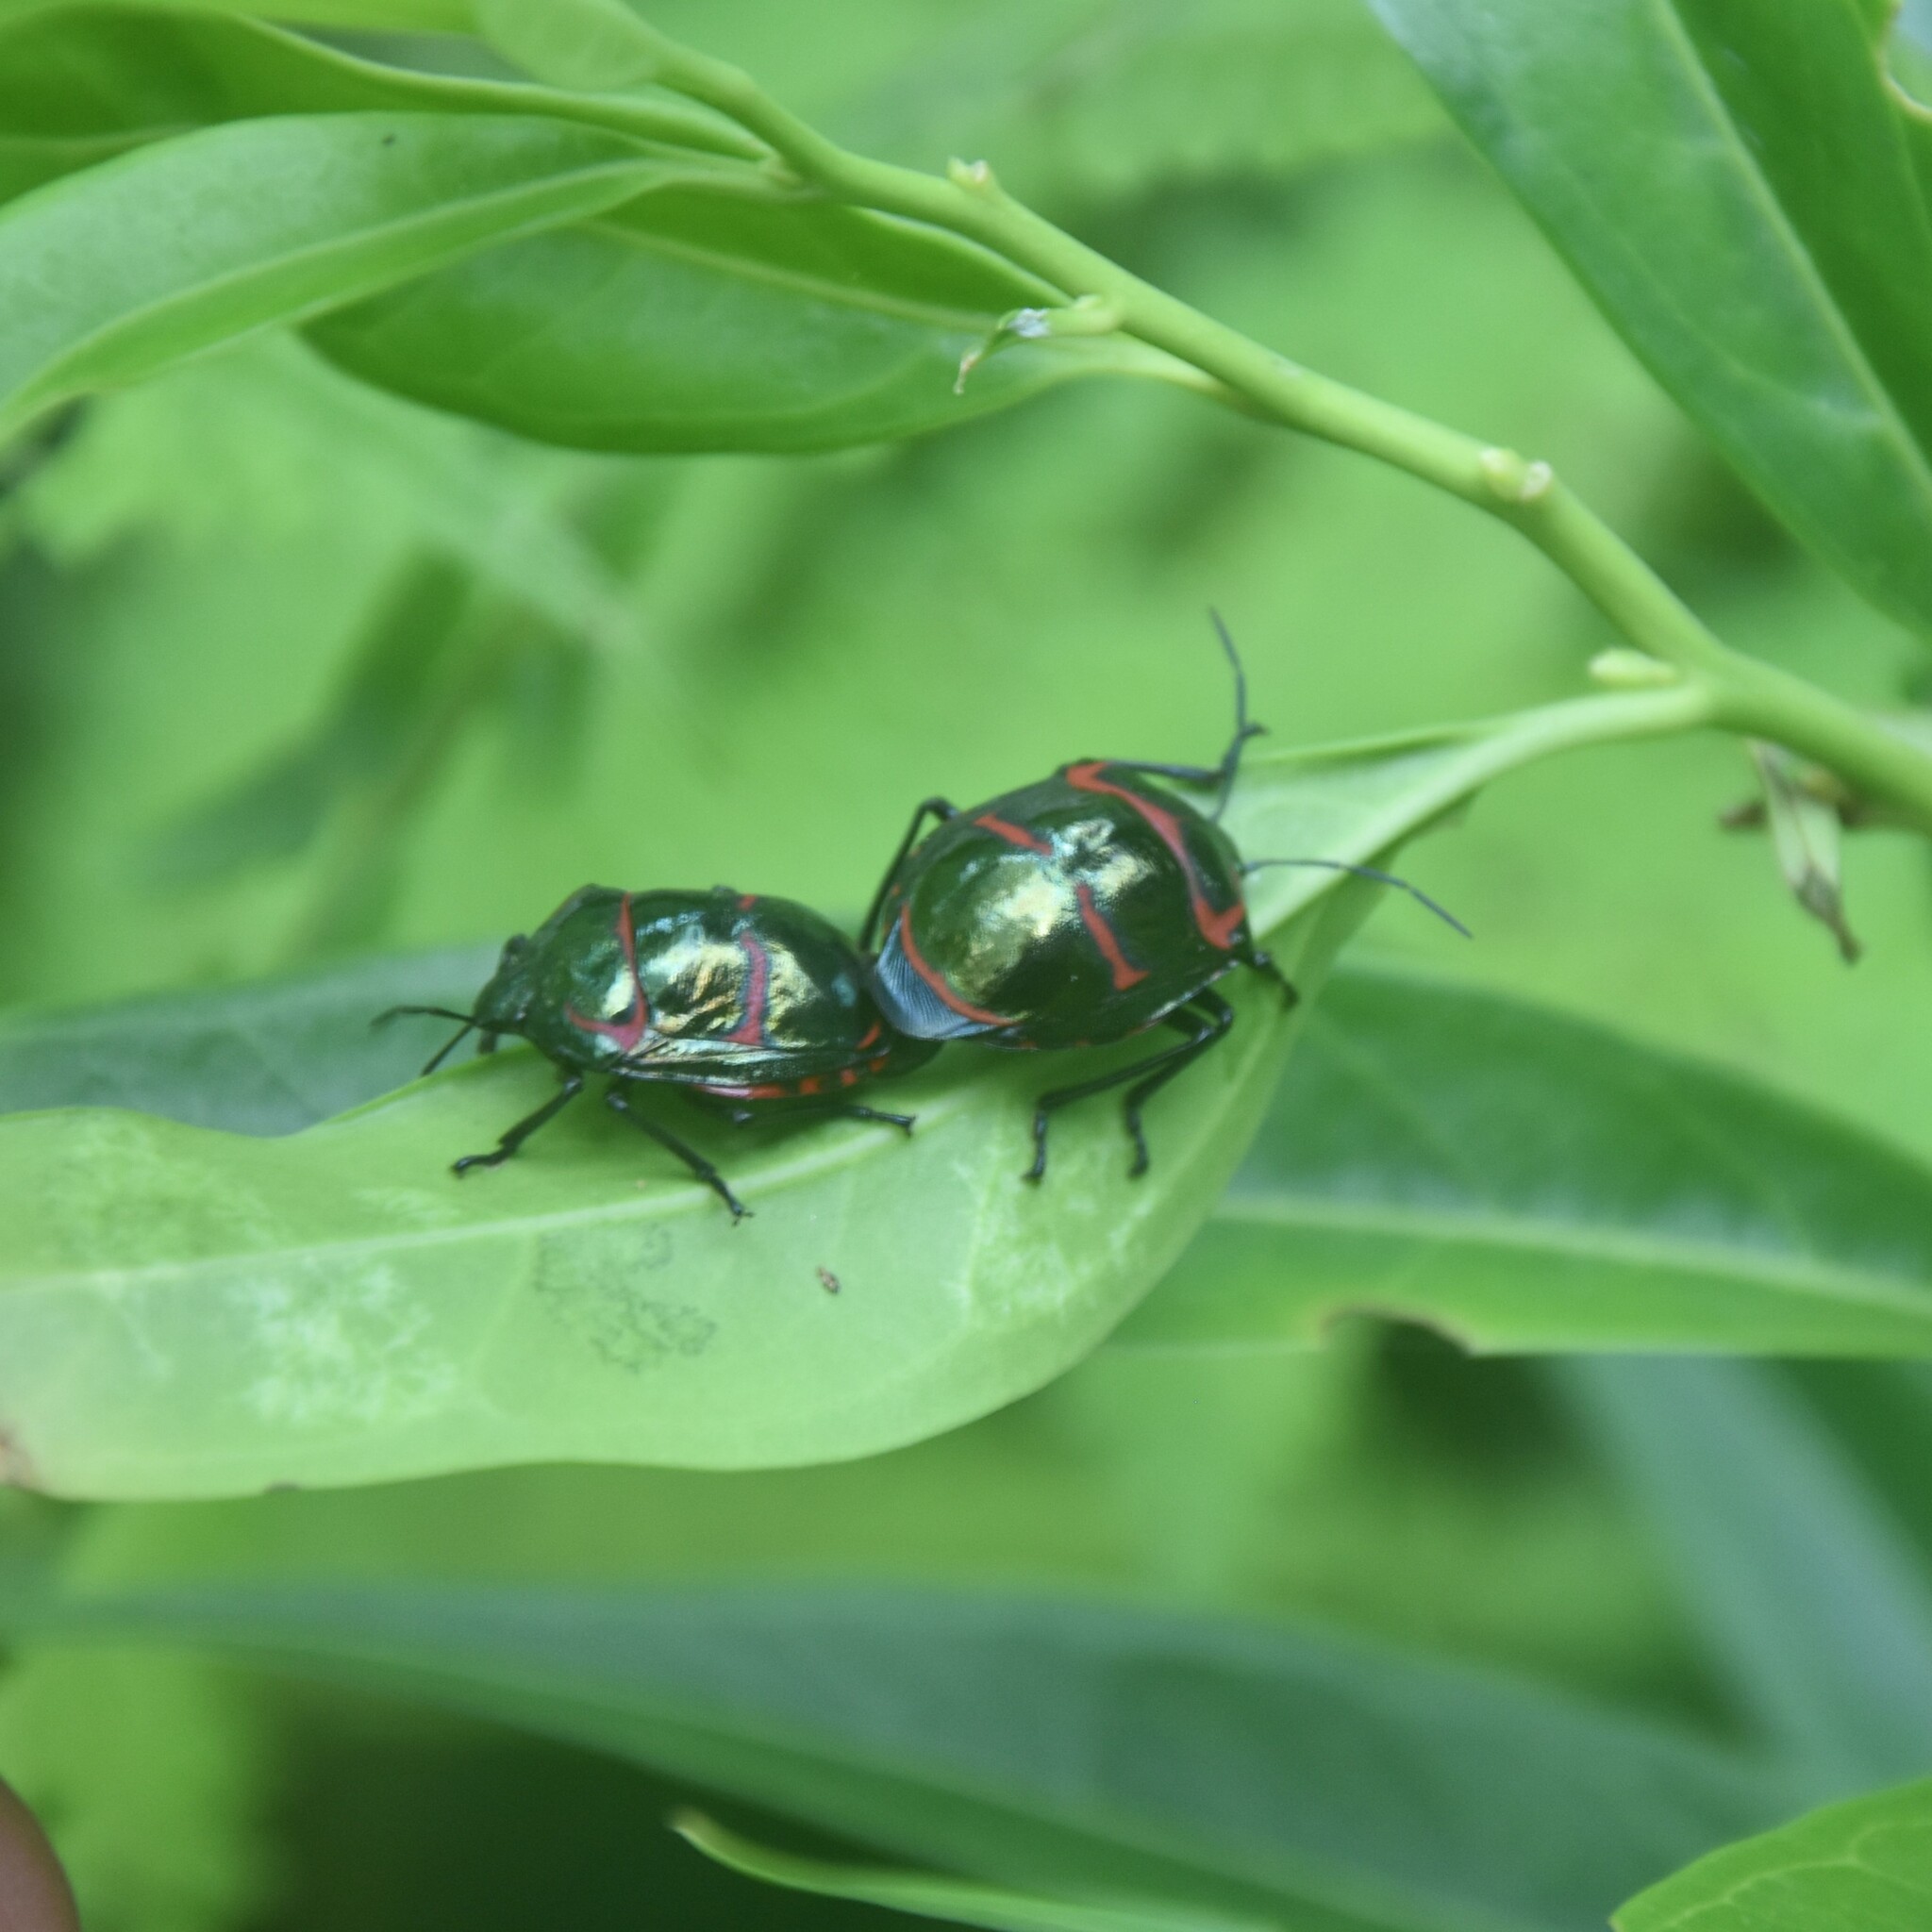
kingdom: Animalia
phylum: Arthropoda
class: Insecta
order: Hemiptera
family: Scutelleridae
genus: Poecilocoris
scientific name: Poecilocoris
